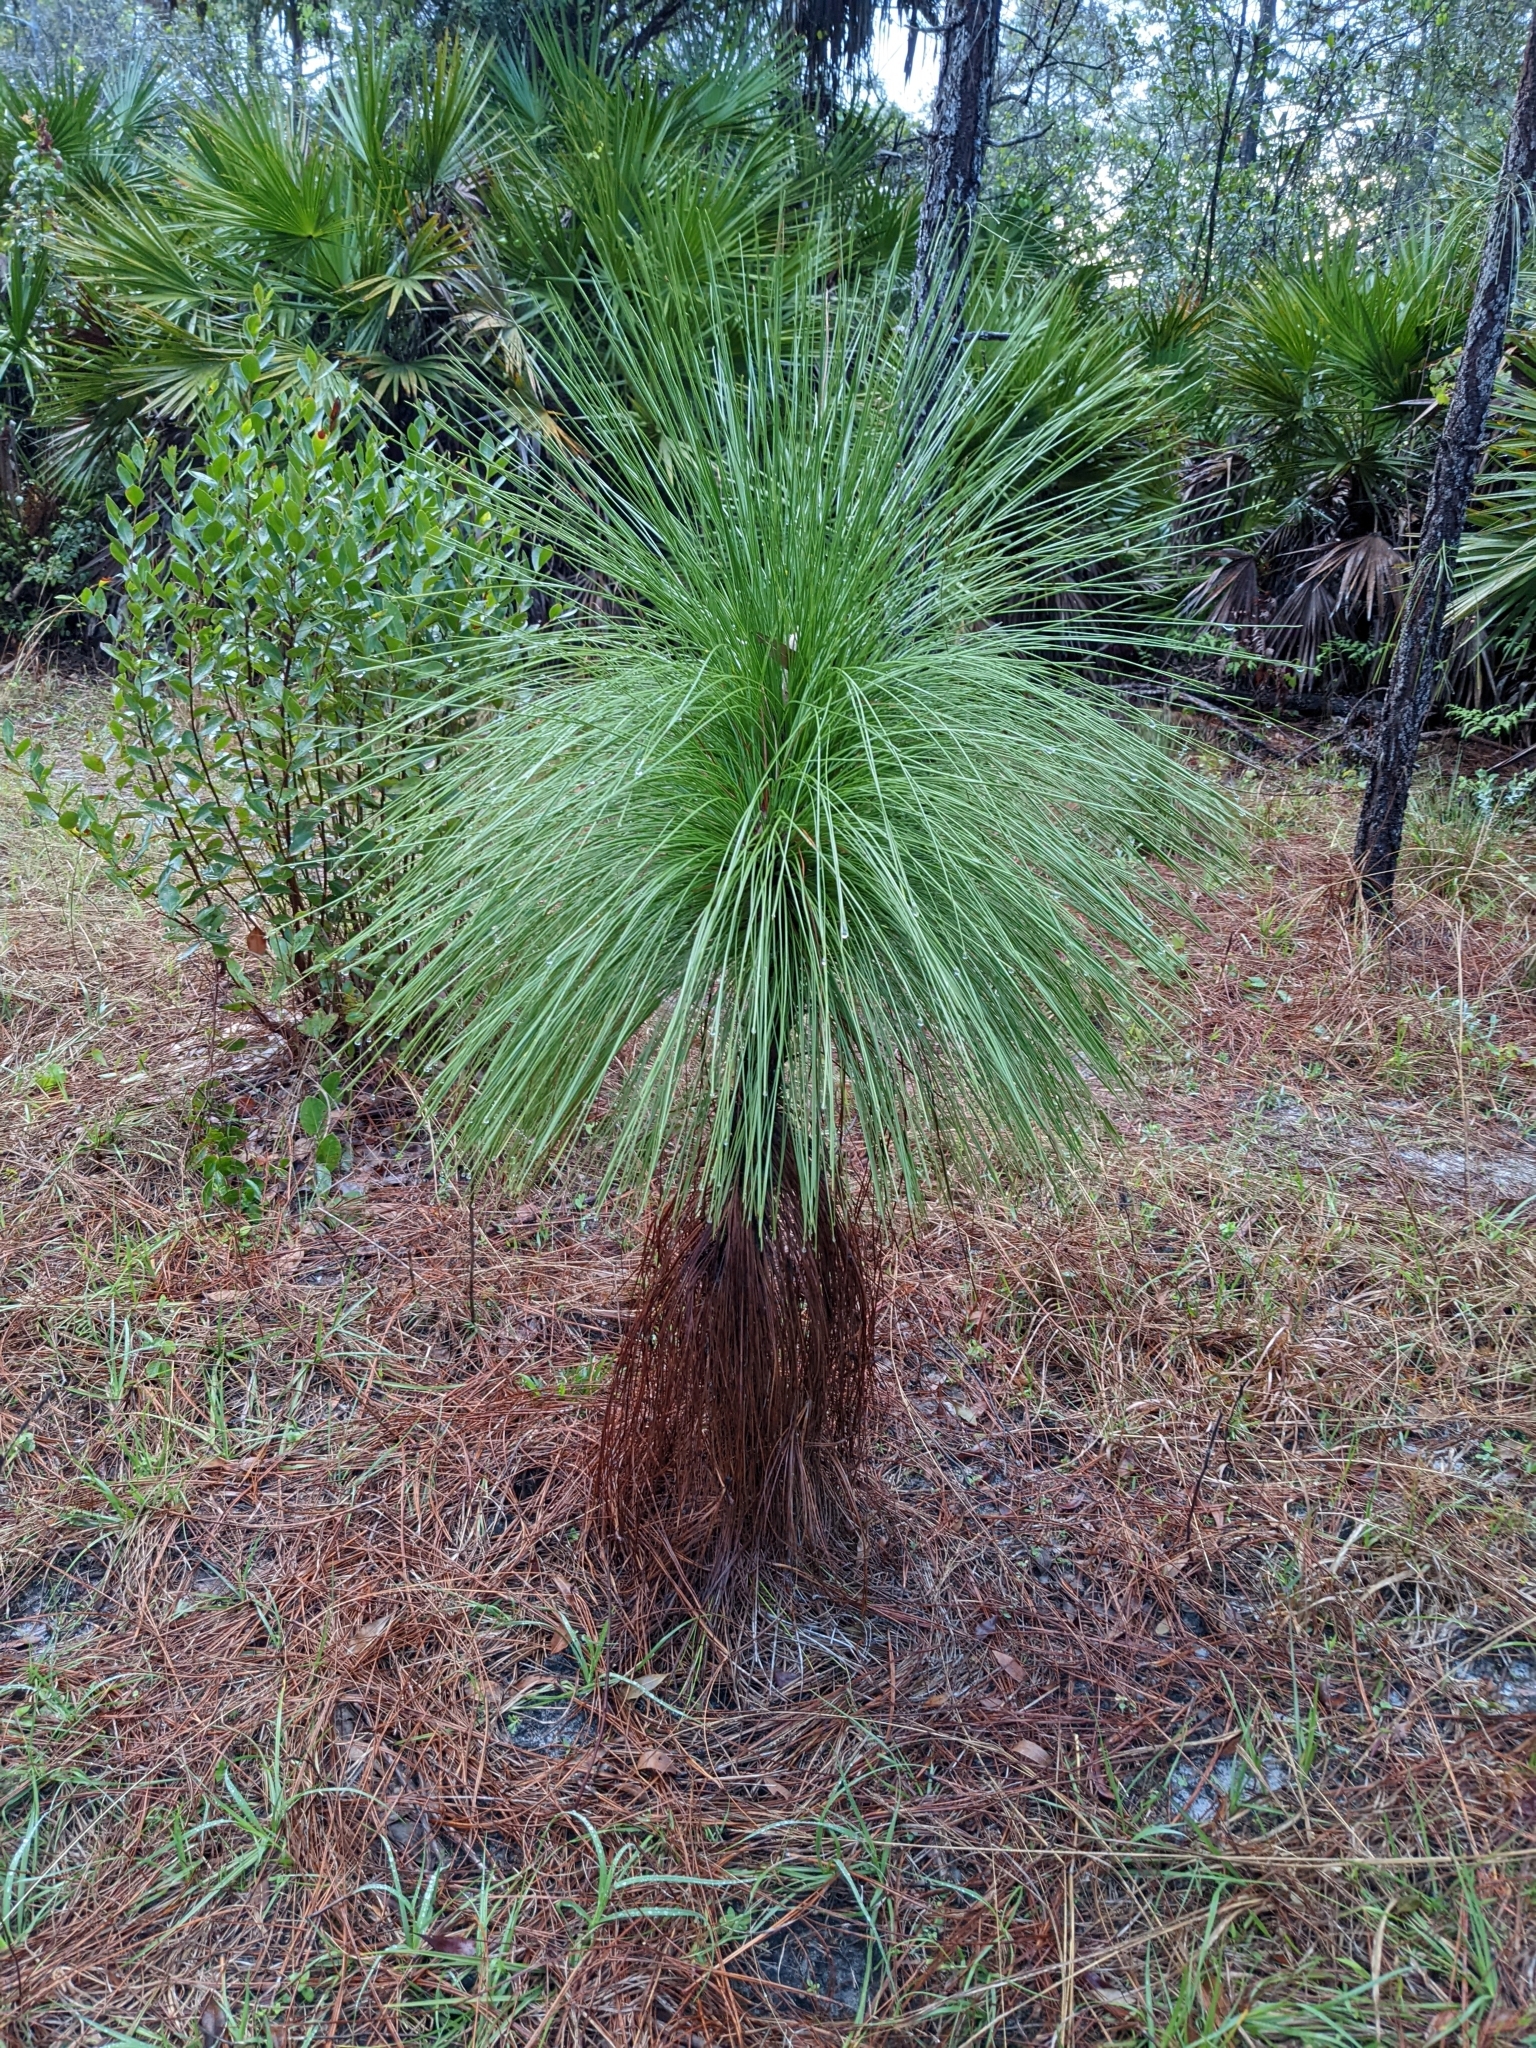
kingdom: Plantae
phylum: Tracheophyta
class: Pinopsida
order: Pinales
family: Pinaceae
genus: Pinus
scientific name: Pinus palustris
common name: Longleaf pine
